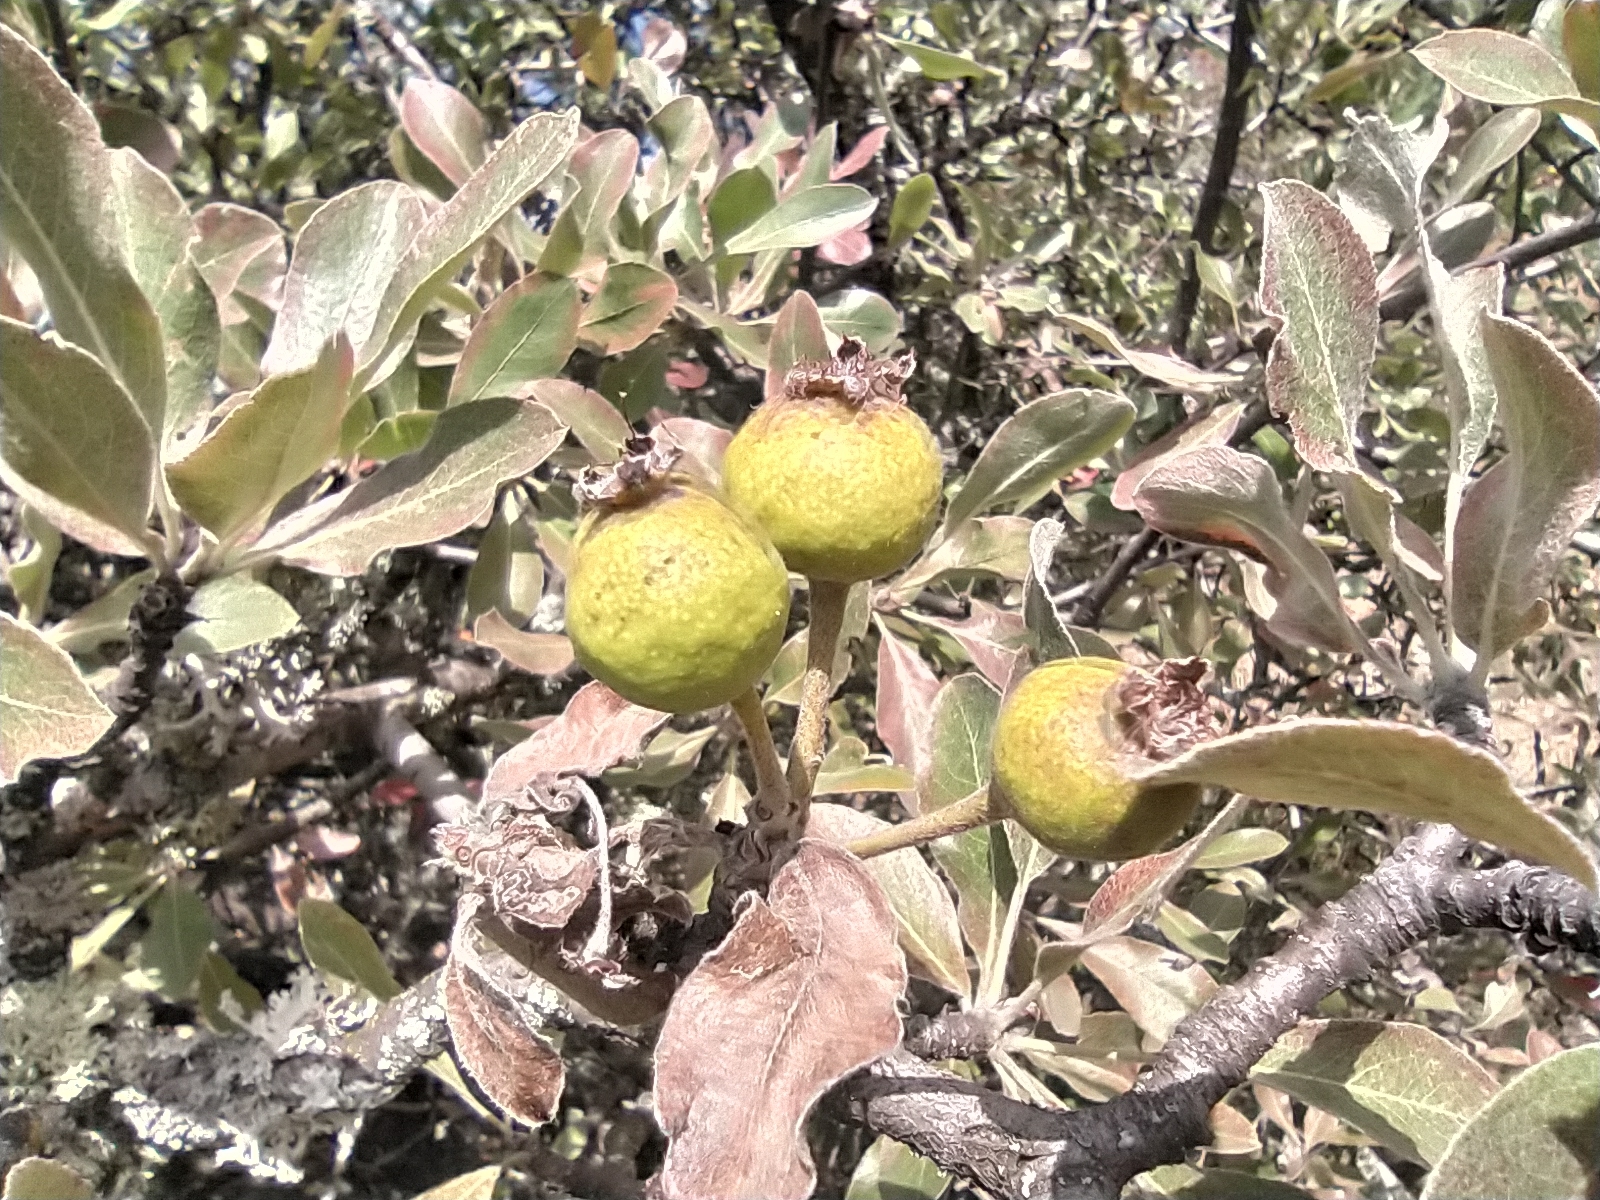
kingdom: Plantae
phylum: Tracheophyta
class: Magnoliopsida
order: Rosales
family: Rosaceae
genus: Pyrus
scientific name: Pyrus elaeagrifolia
